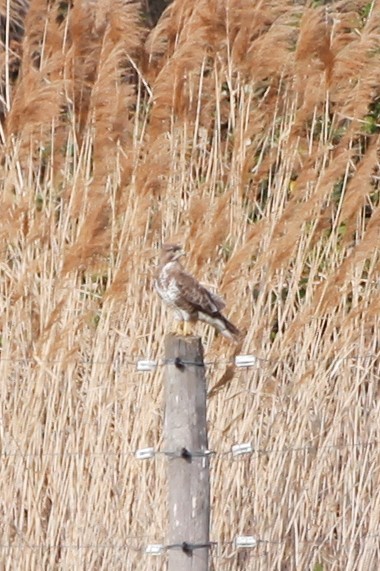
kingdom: Animalia
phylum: Chordata
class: Aves
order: Accipitriformes
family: Accipitridae
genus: Buteo
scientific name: Buteo buteo
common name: Common buzzard
